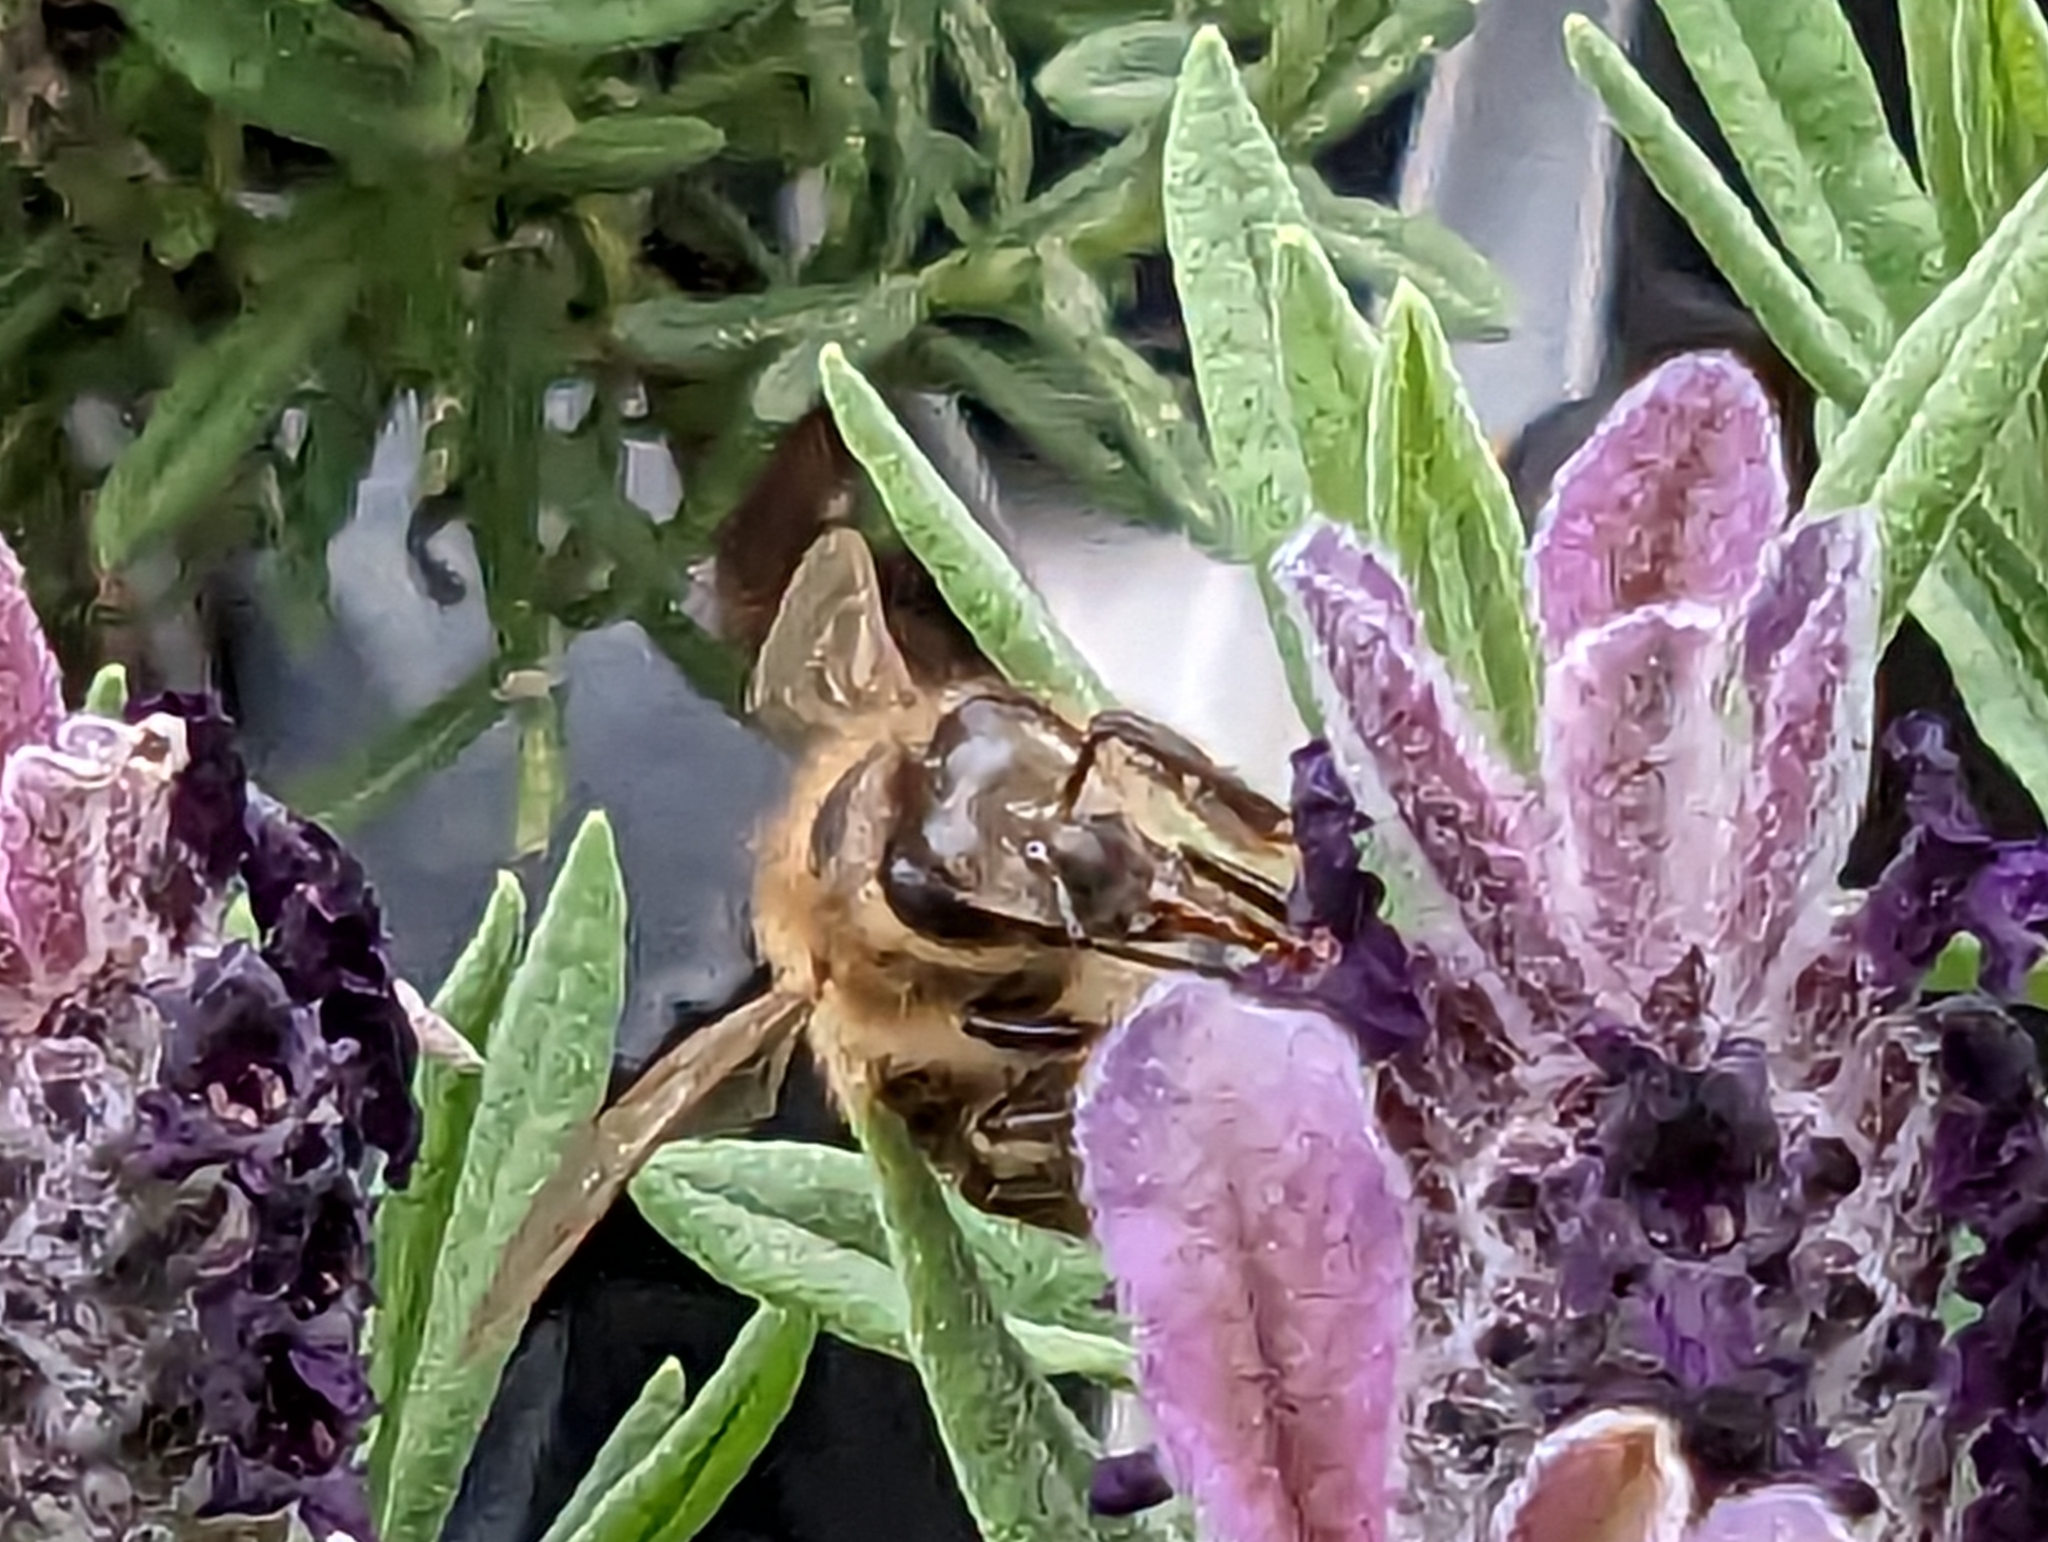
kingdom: Animalia
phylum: Arthropoda
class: Insecta
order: Hymenoptera
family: Apidae
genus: Apis
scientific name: Apis mellifera
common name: Honey bee
